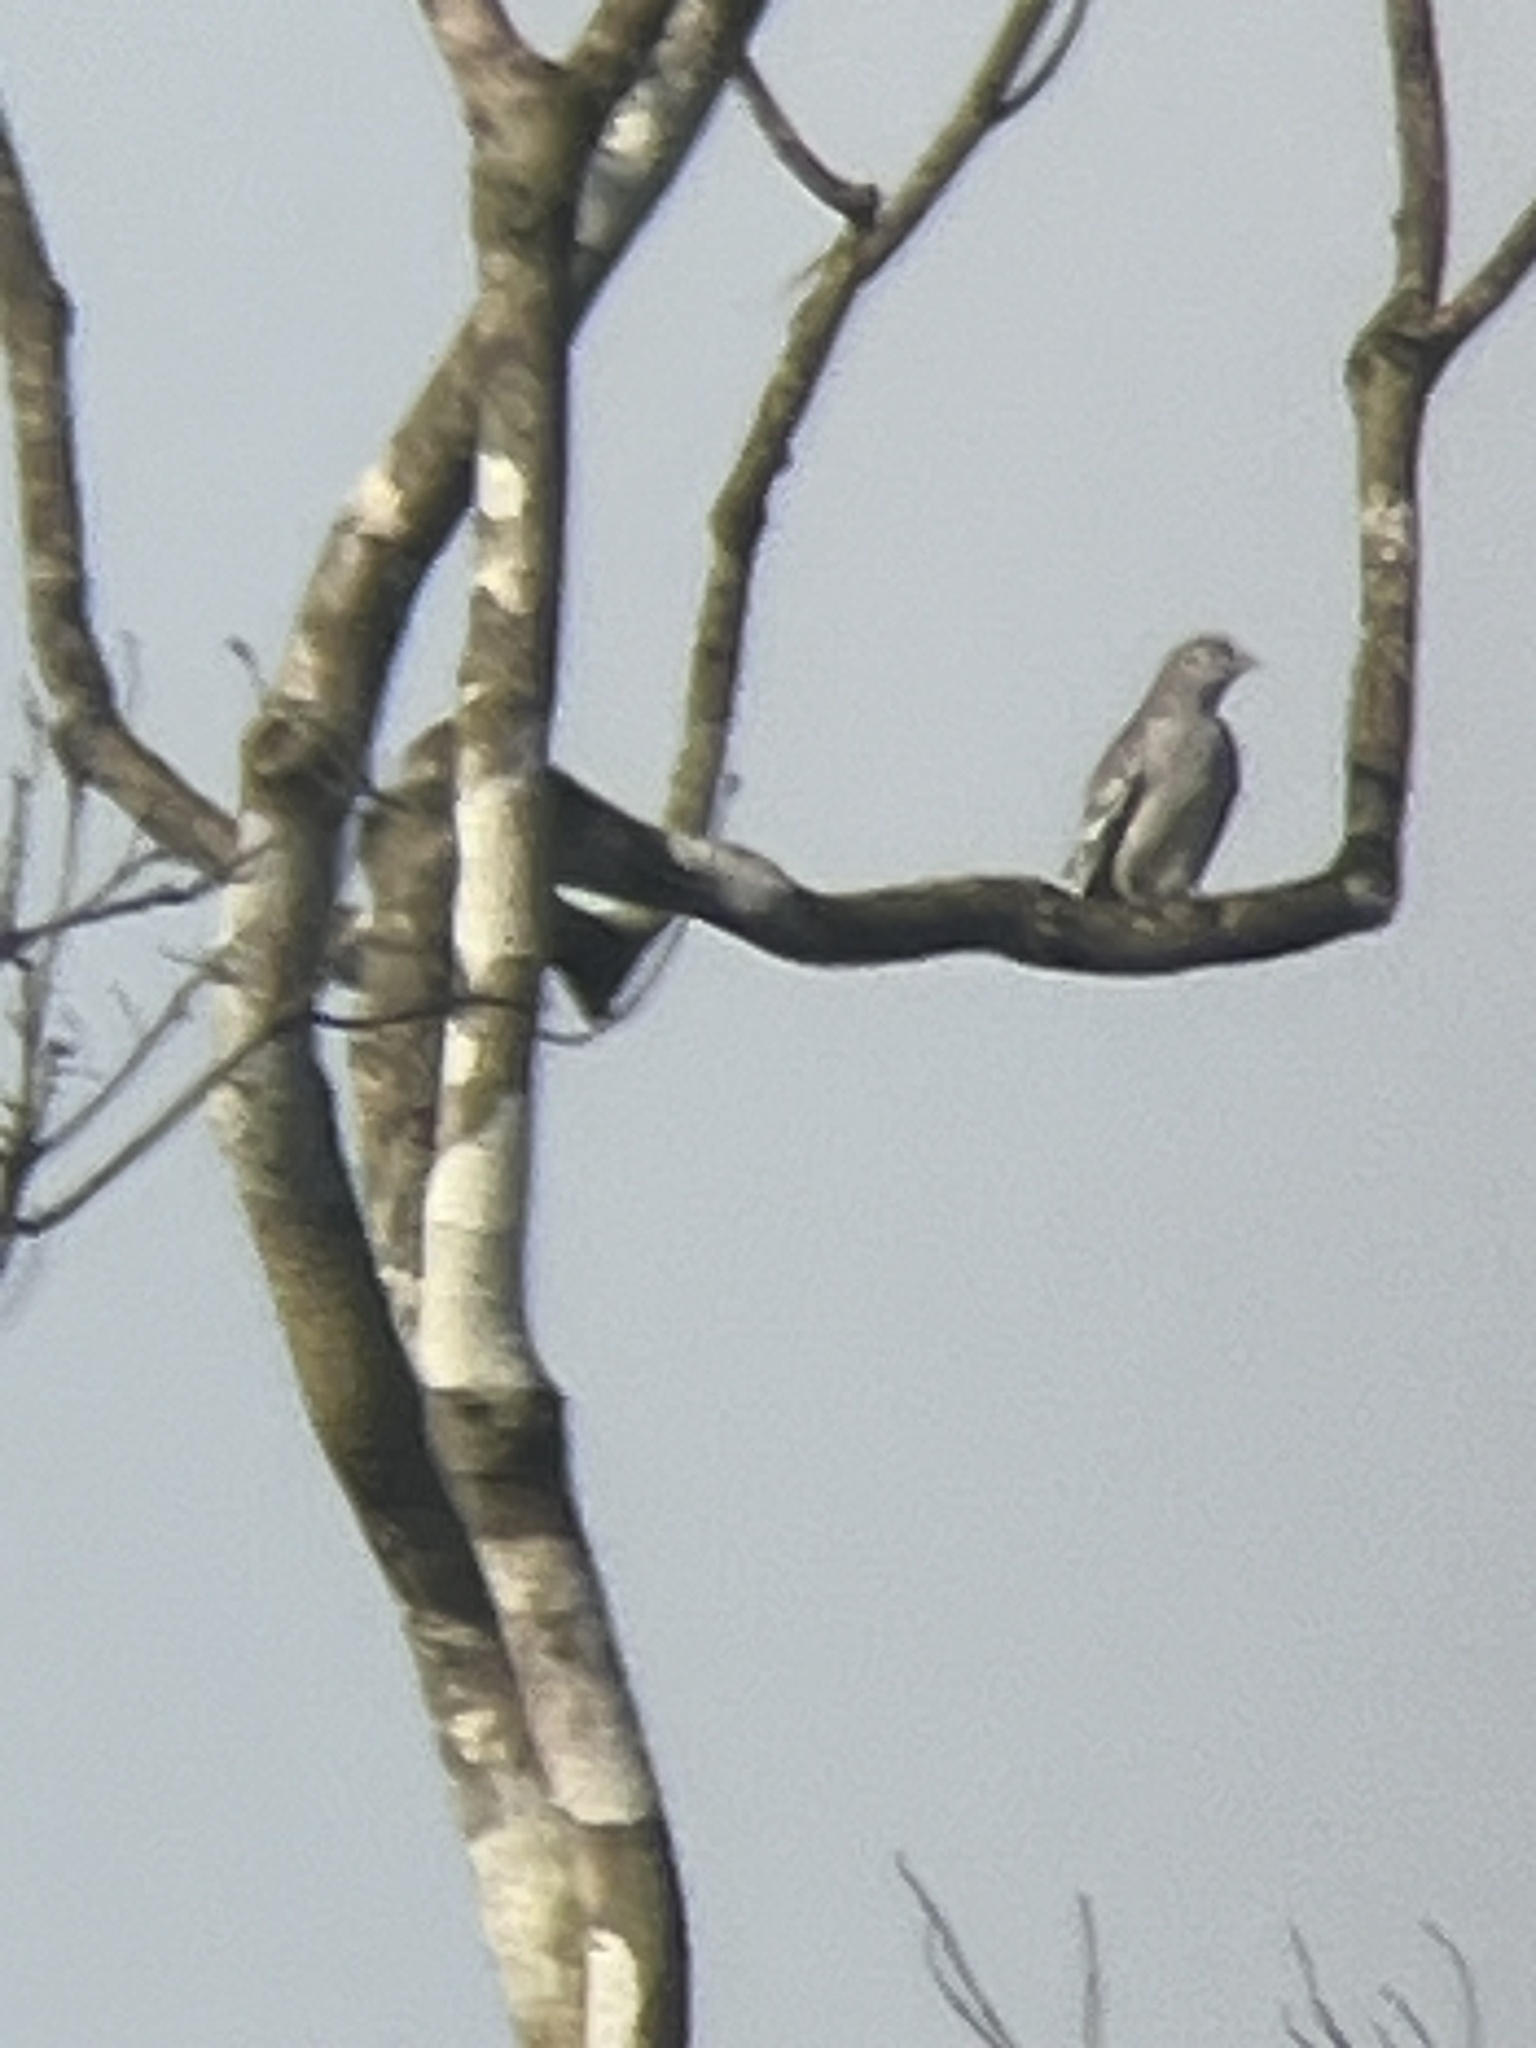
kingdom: Animalia
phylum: Chordata
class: Aves
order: Passeriformes
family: Cotingidae
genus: Carpodectes
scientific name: Carpodectes nitidus
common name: Snowy cotinga
